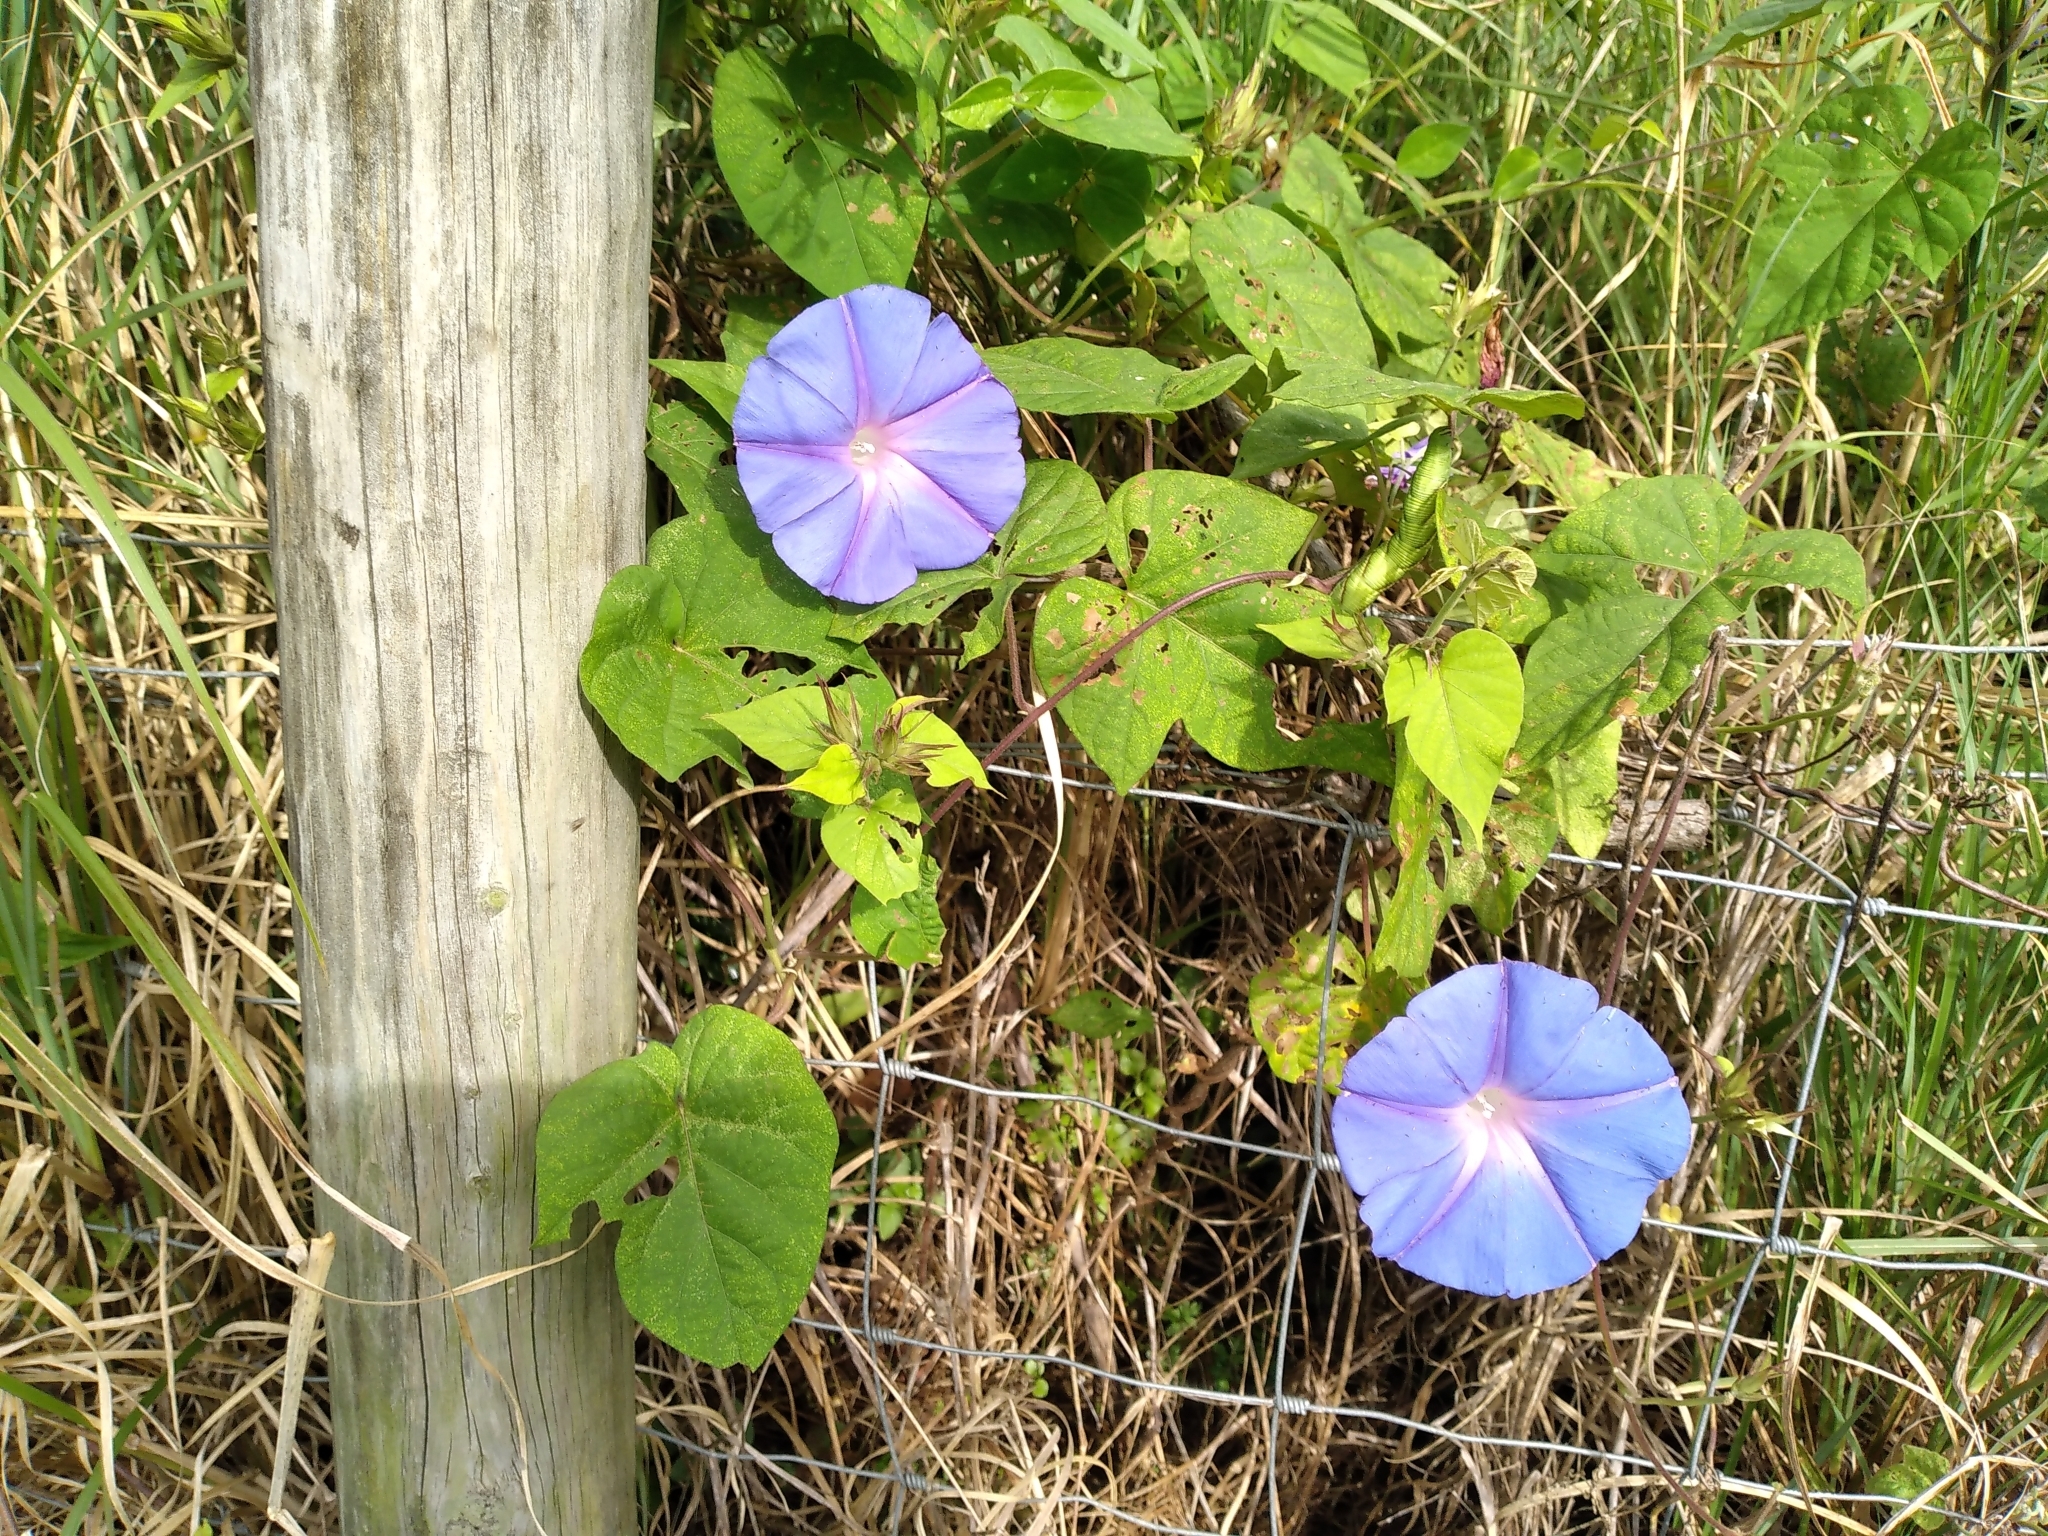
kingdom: Plantae
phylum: Tracheophyta
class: Magnoliopsida
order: Solanales
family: Convolvulaceae
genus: Ipomoea
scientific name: Ipomoea indica
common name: Blue dawnflower
